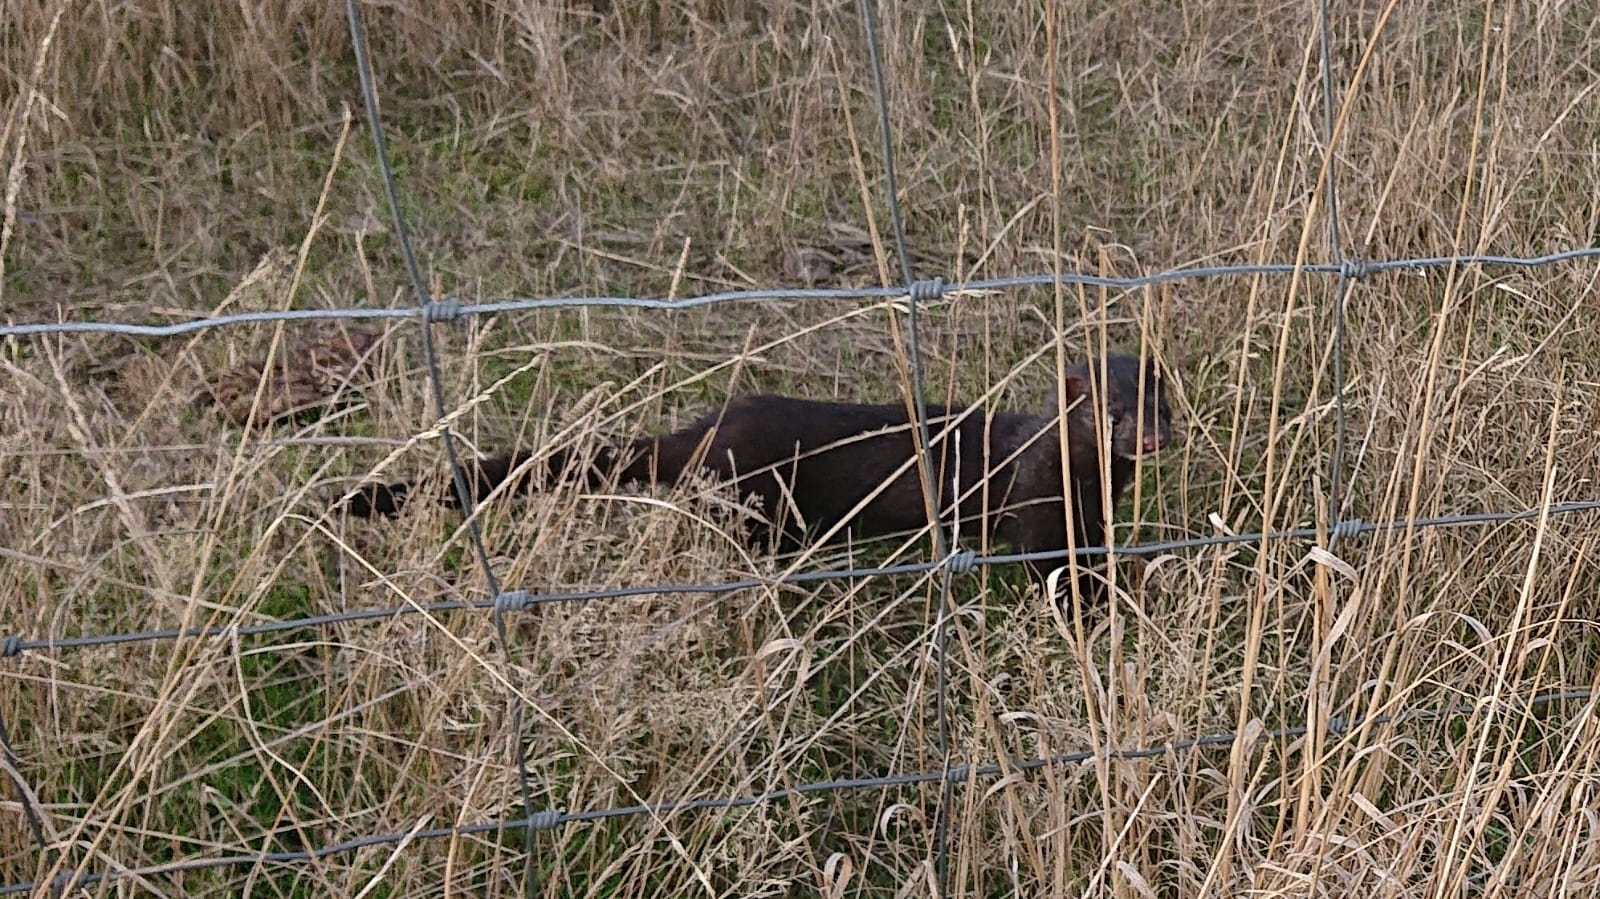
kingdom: Animalia
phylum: Chordata
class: Mammalia
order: Carnivora
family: Mustelidae
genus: Mustela
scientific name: Mustela
